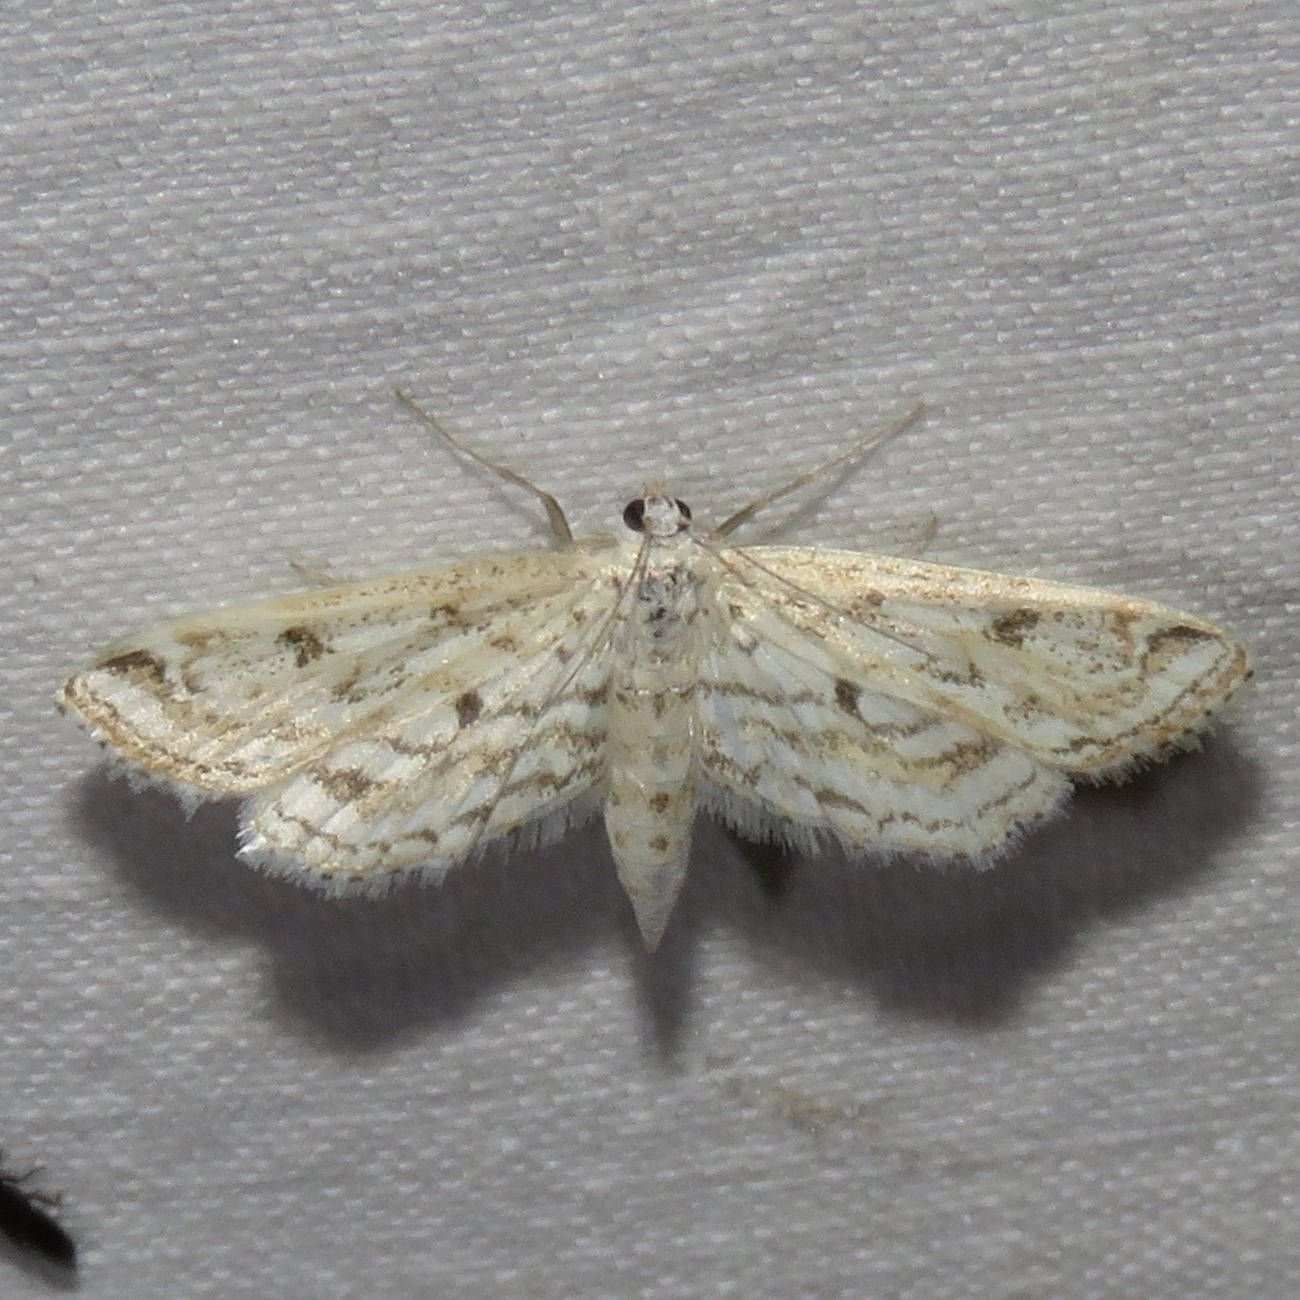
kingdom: Animalia
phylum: Arthropoda
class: Insecta
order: Lepidoptera
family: Crambidae
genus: Parapoynx
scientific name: Parapoynx allionealis
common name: Bladderwort casemaker
